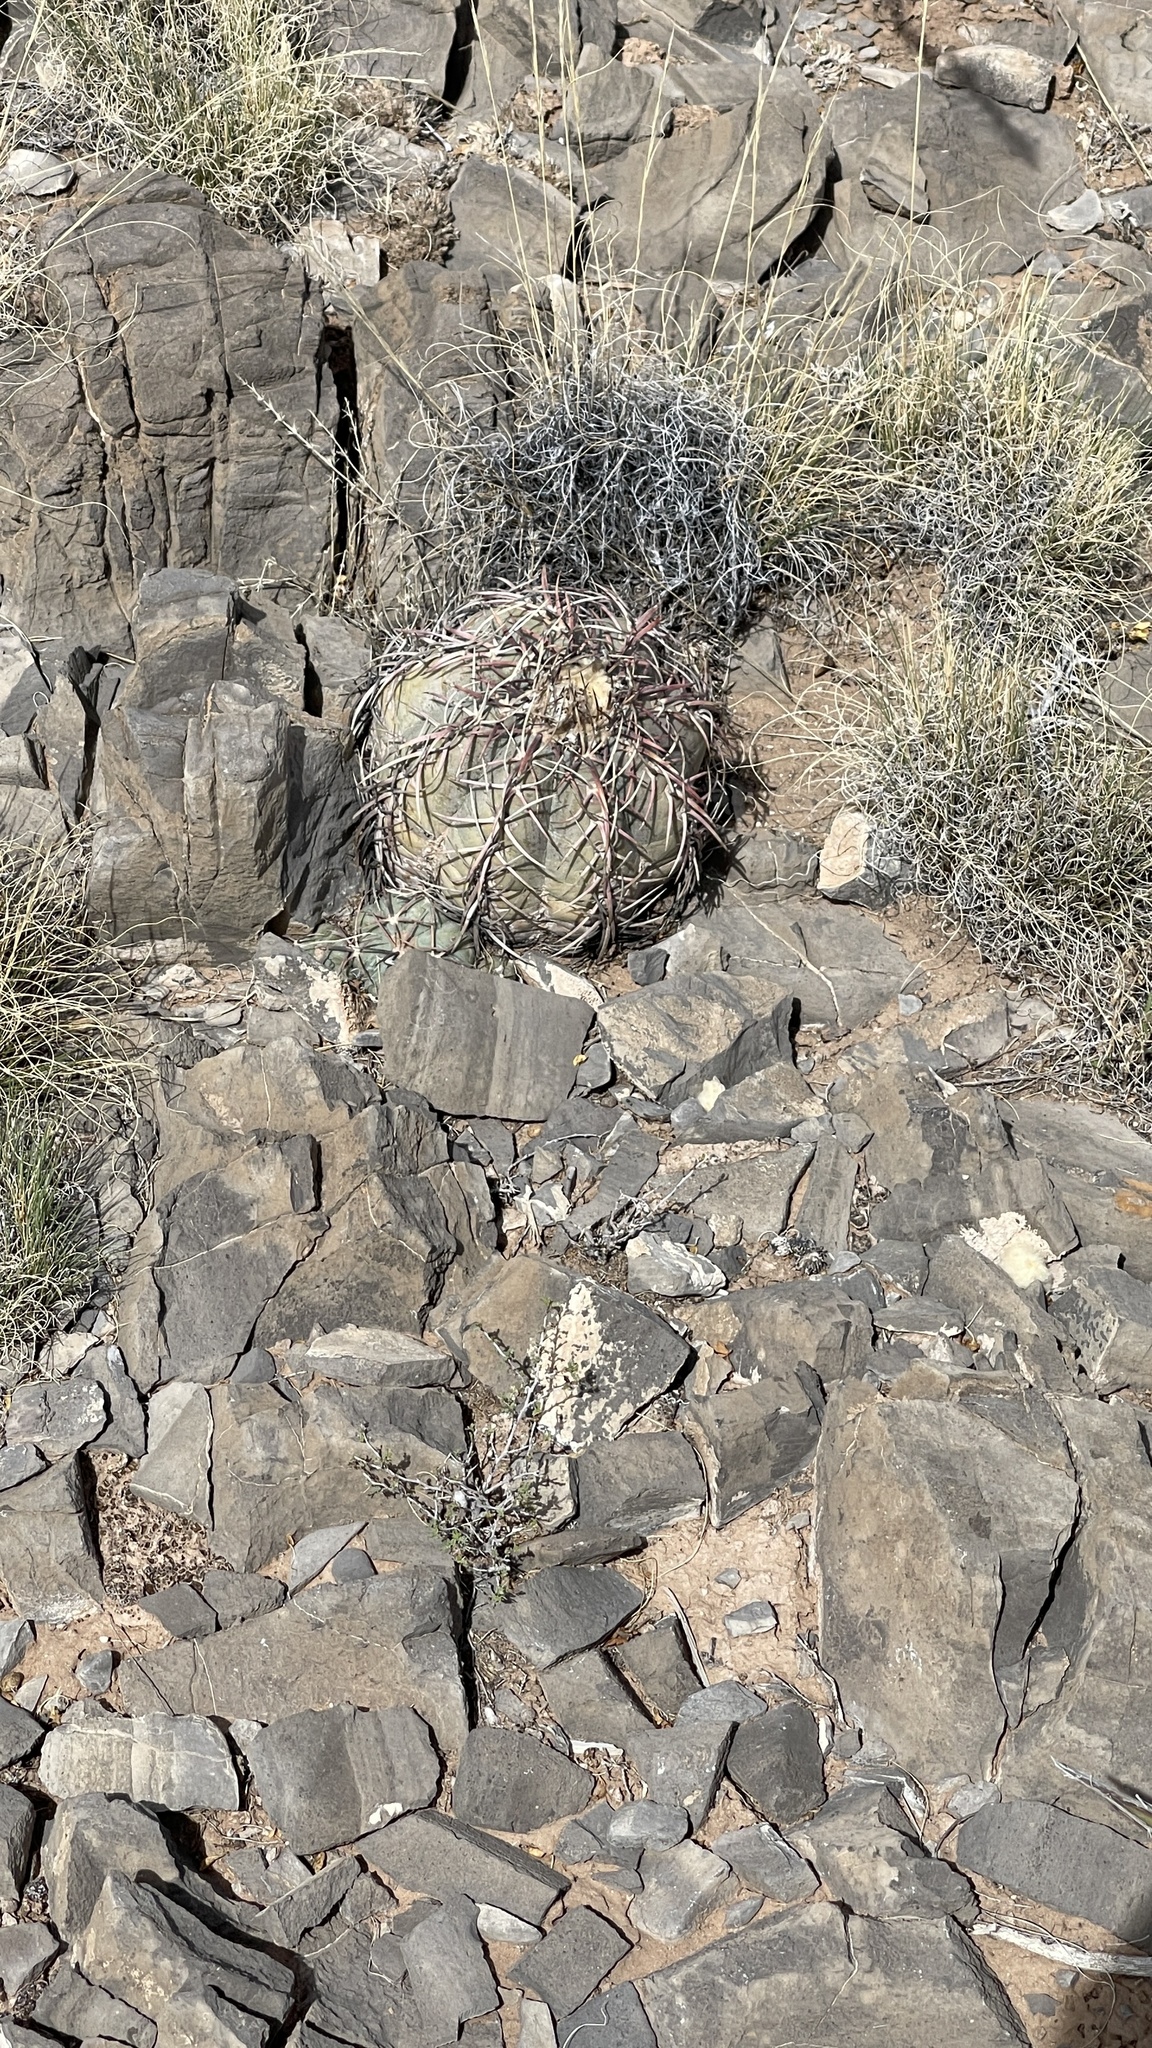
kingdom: Plantae
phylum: Tracheophyta
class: Magnoliopsida
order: Caryophyllales
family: Cactaceae
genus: Echinocactus
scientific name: Echinocactus horizonthalonius
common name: Devilshead
